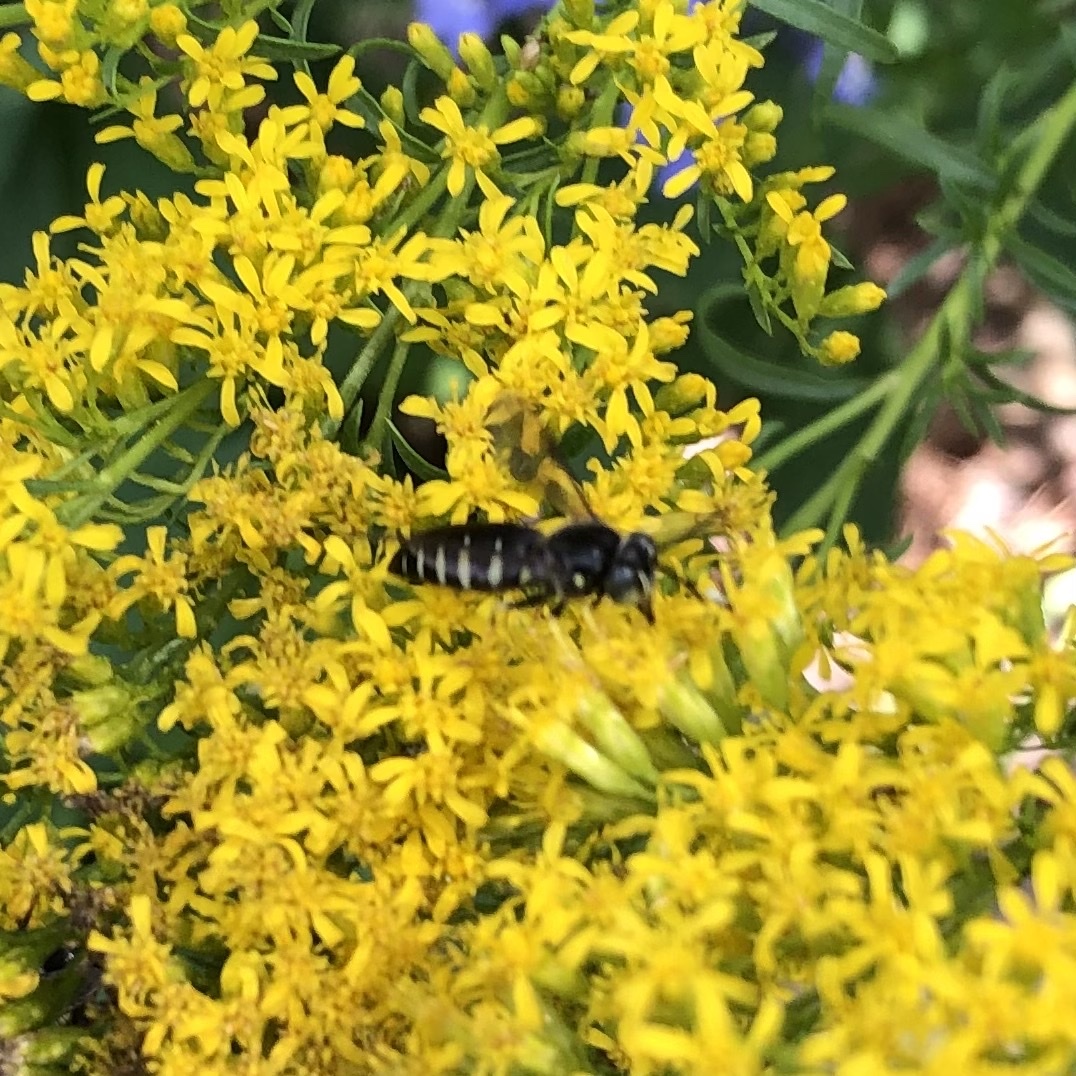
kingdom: Animalia
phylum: Arthropoda
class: Insecta
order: Hymenoptera
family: Crabronidae
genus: Bicyrtes
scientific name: Bicyrtes quadrifasciatus
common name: Four-banded stink bug hunter wasp
